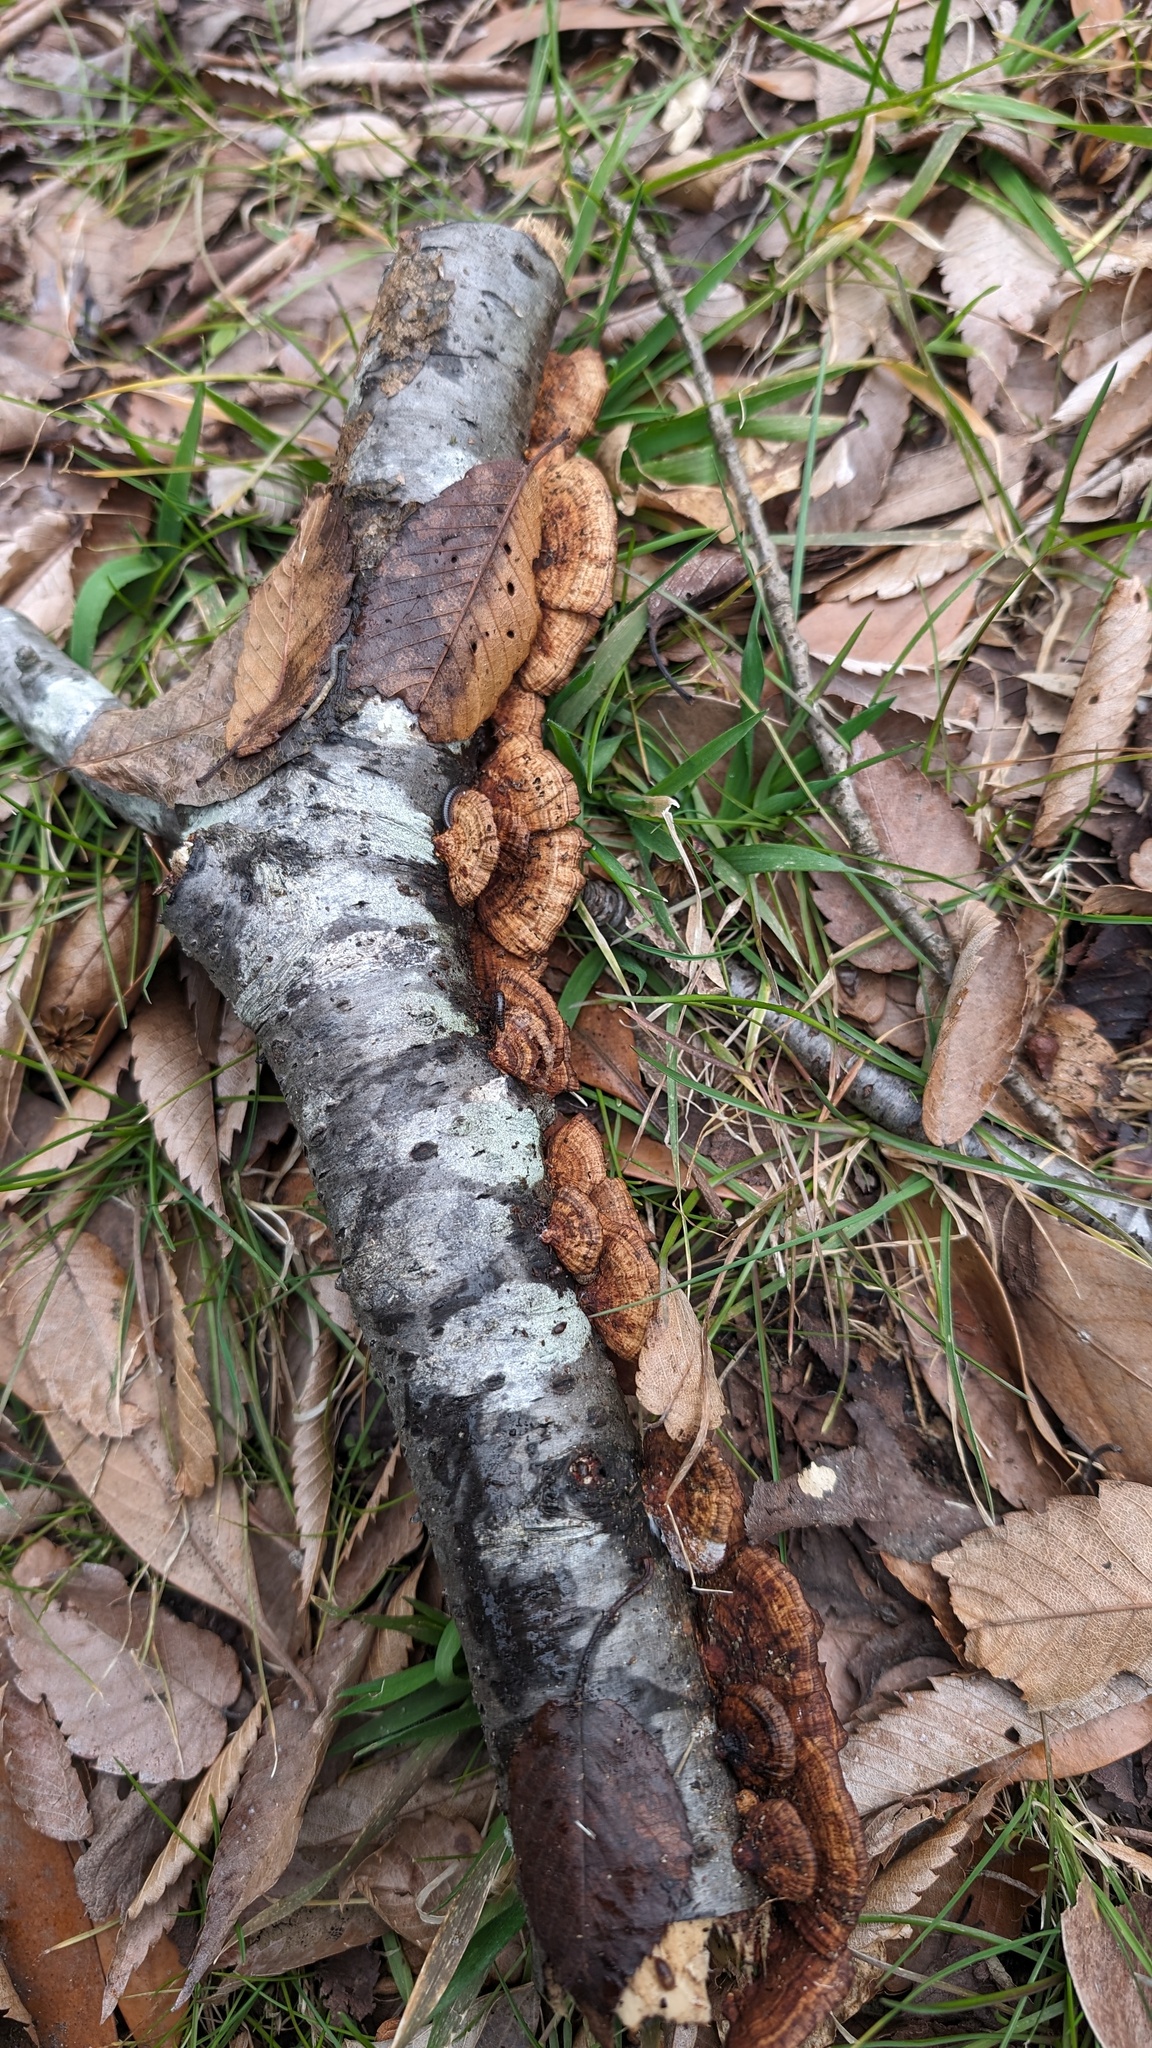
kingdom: Fungi
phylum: Basidiomycota
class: Agaricomycetes
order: Polyporales
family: Polyporaceae
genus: Daedaleopsis
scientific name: Daedaleopsis tricolor
